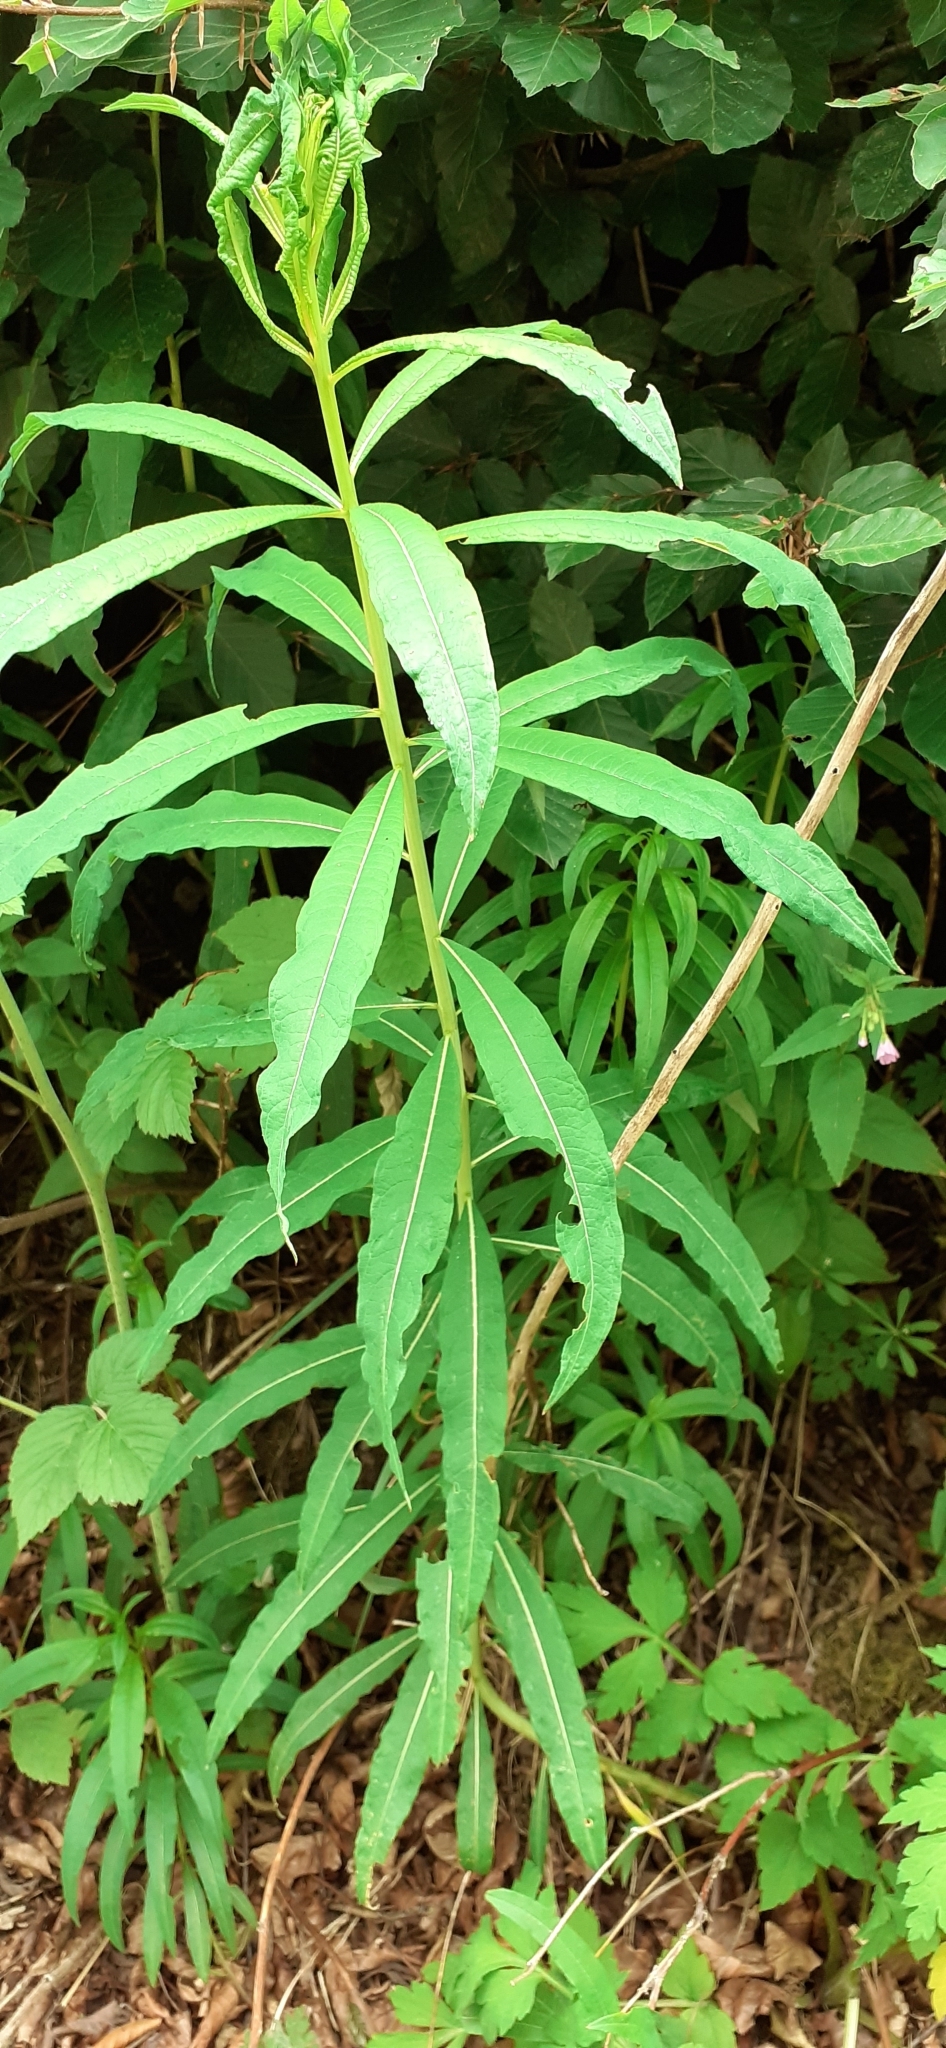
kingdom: Plantae
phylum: Tracheophyta
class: Magnoliopsida
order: Myrtales
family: Onagraceae
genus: Chamaenerion
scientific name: Chamaenerion angustifolium
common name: Fireweed
